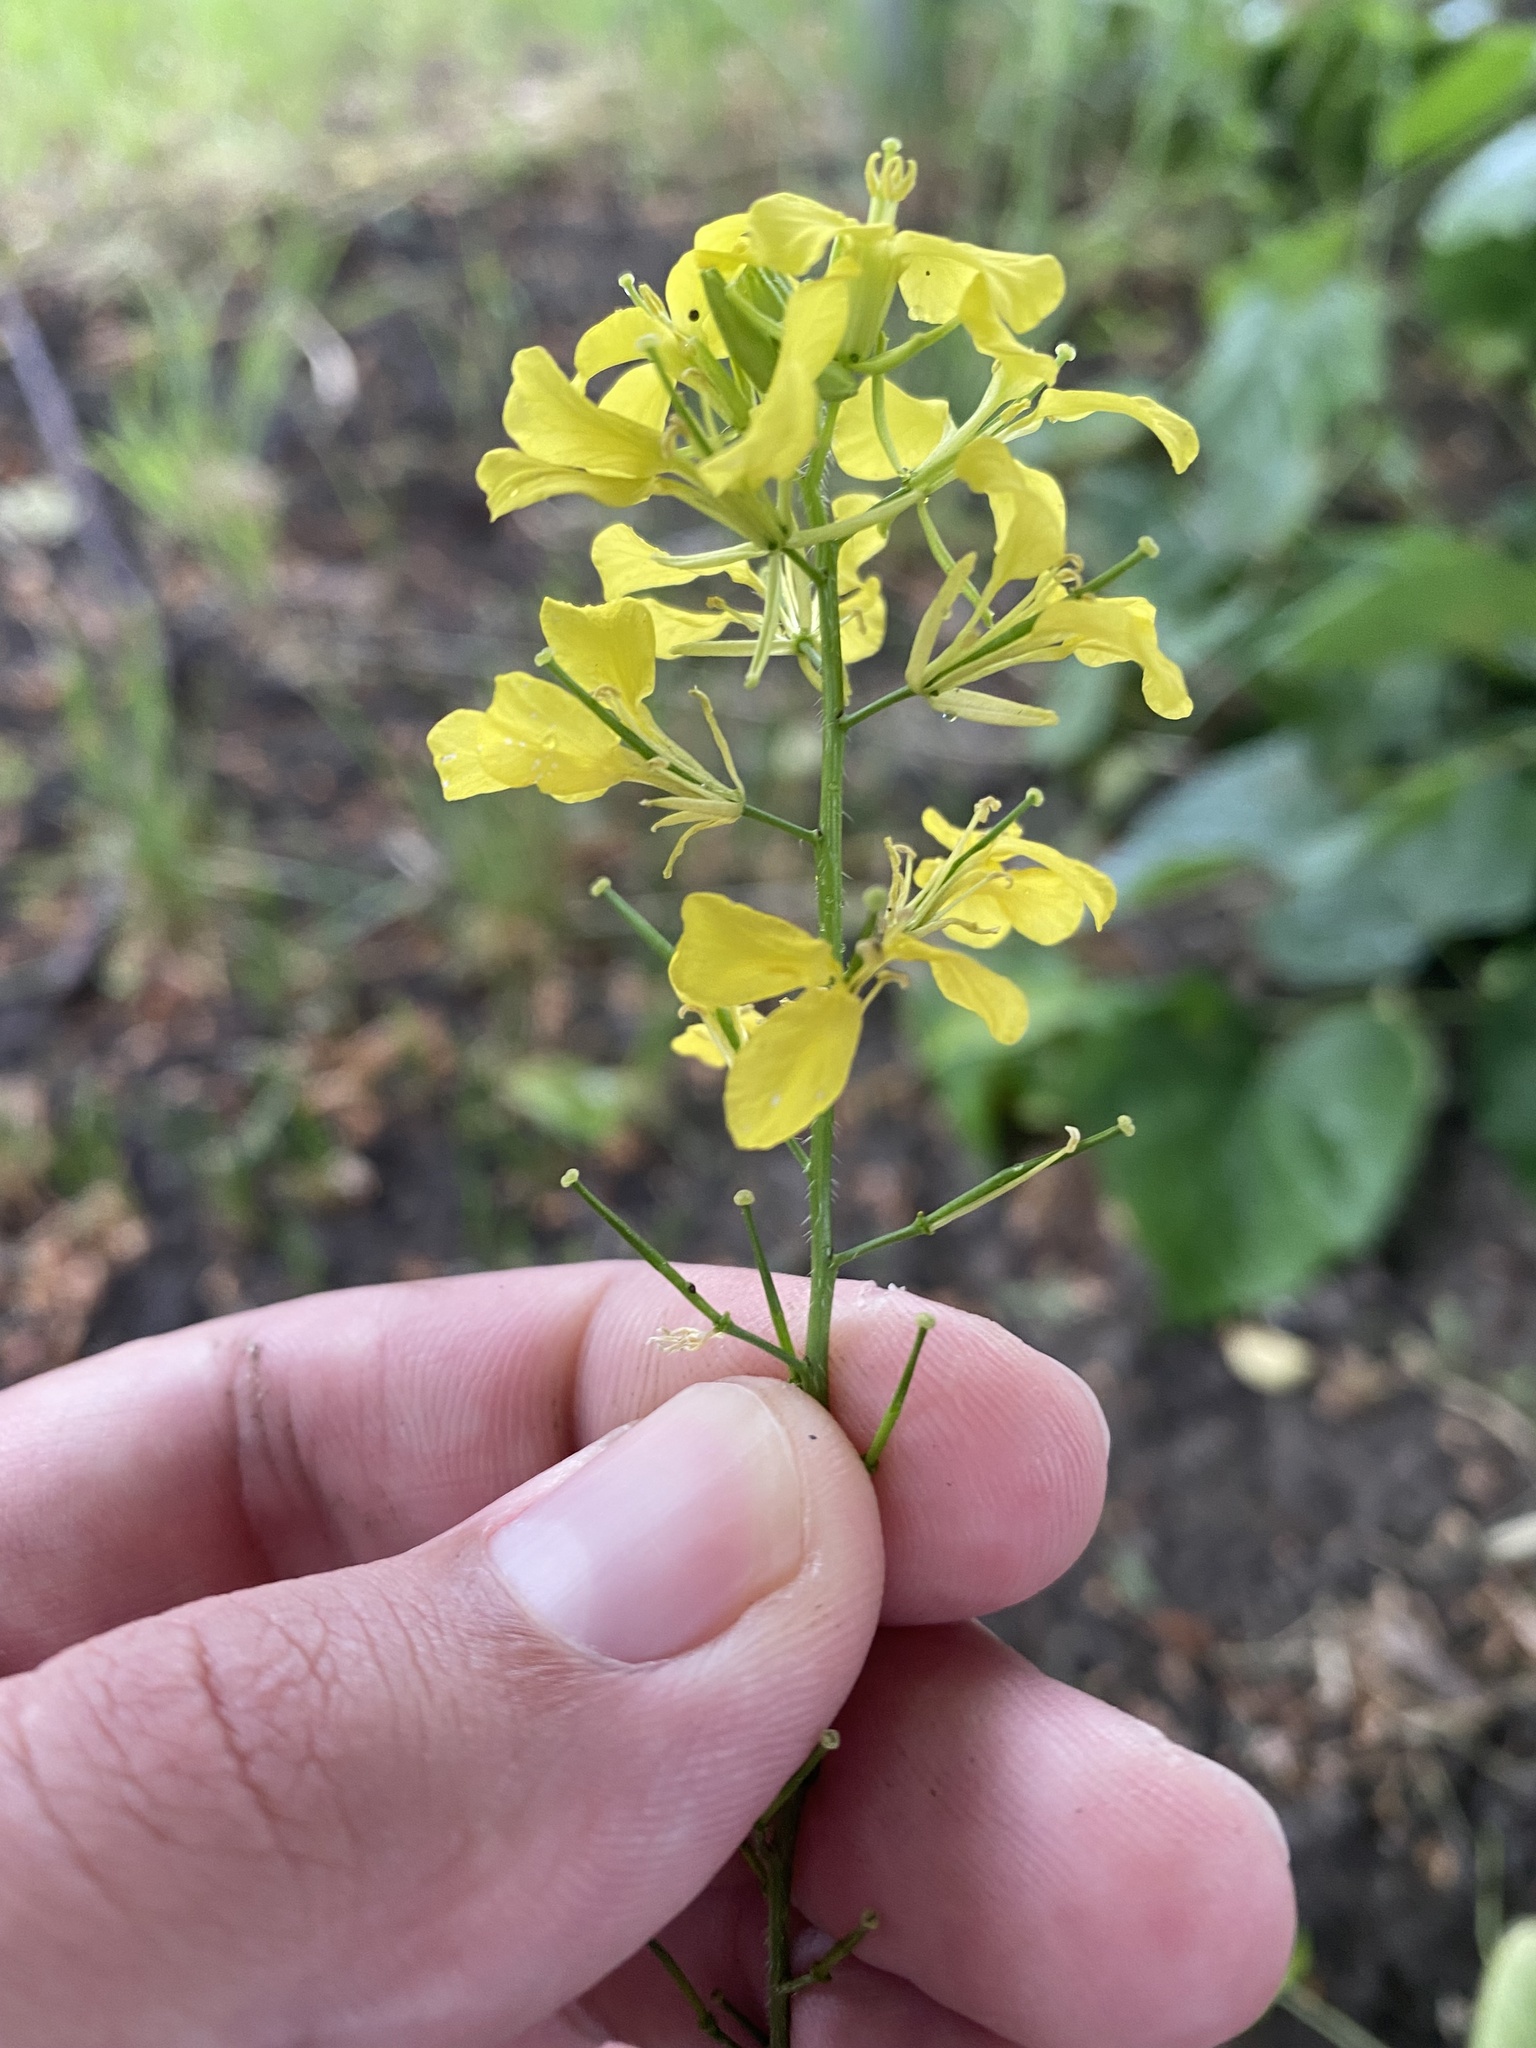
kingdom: Plantae
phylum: Tracheophyta
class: Magnoliopsida
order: Brassicales
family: Brassicaceae
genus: Sinapis
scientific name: Sinapis arvensis
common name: Charlock
